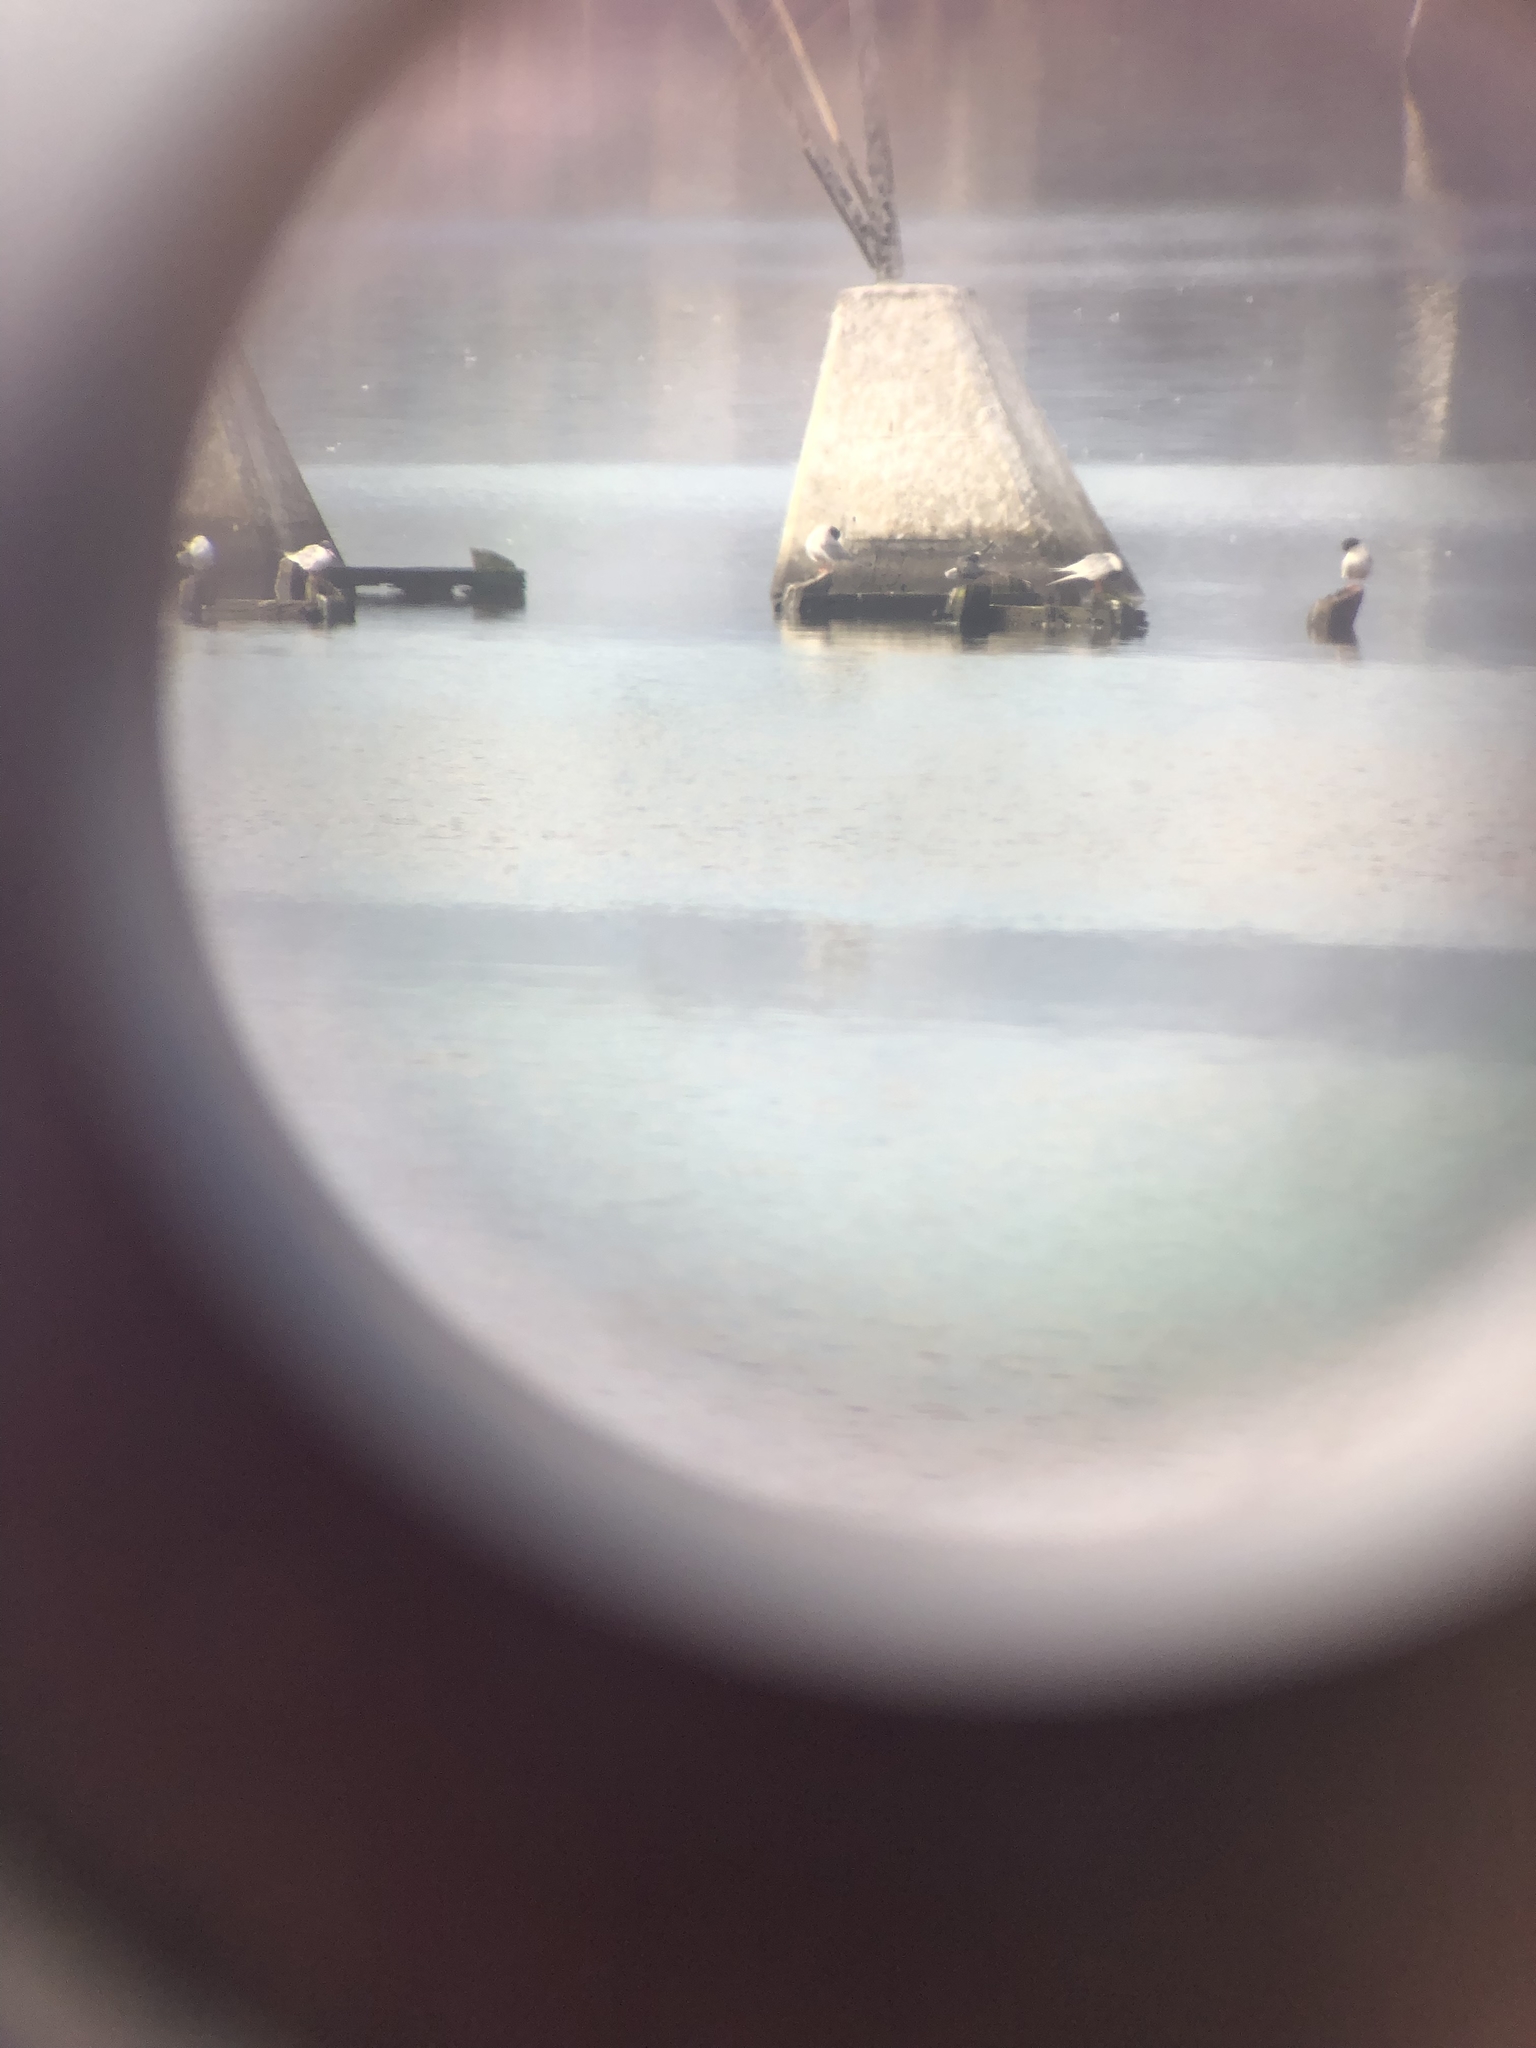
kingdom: Animalia
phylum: Chordata
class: Aves
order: Charadriiformes
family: Laridae
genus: Chlidonias
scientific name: Chlidonias niger
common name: Black tern
